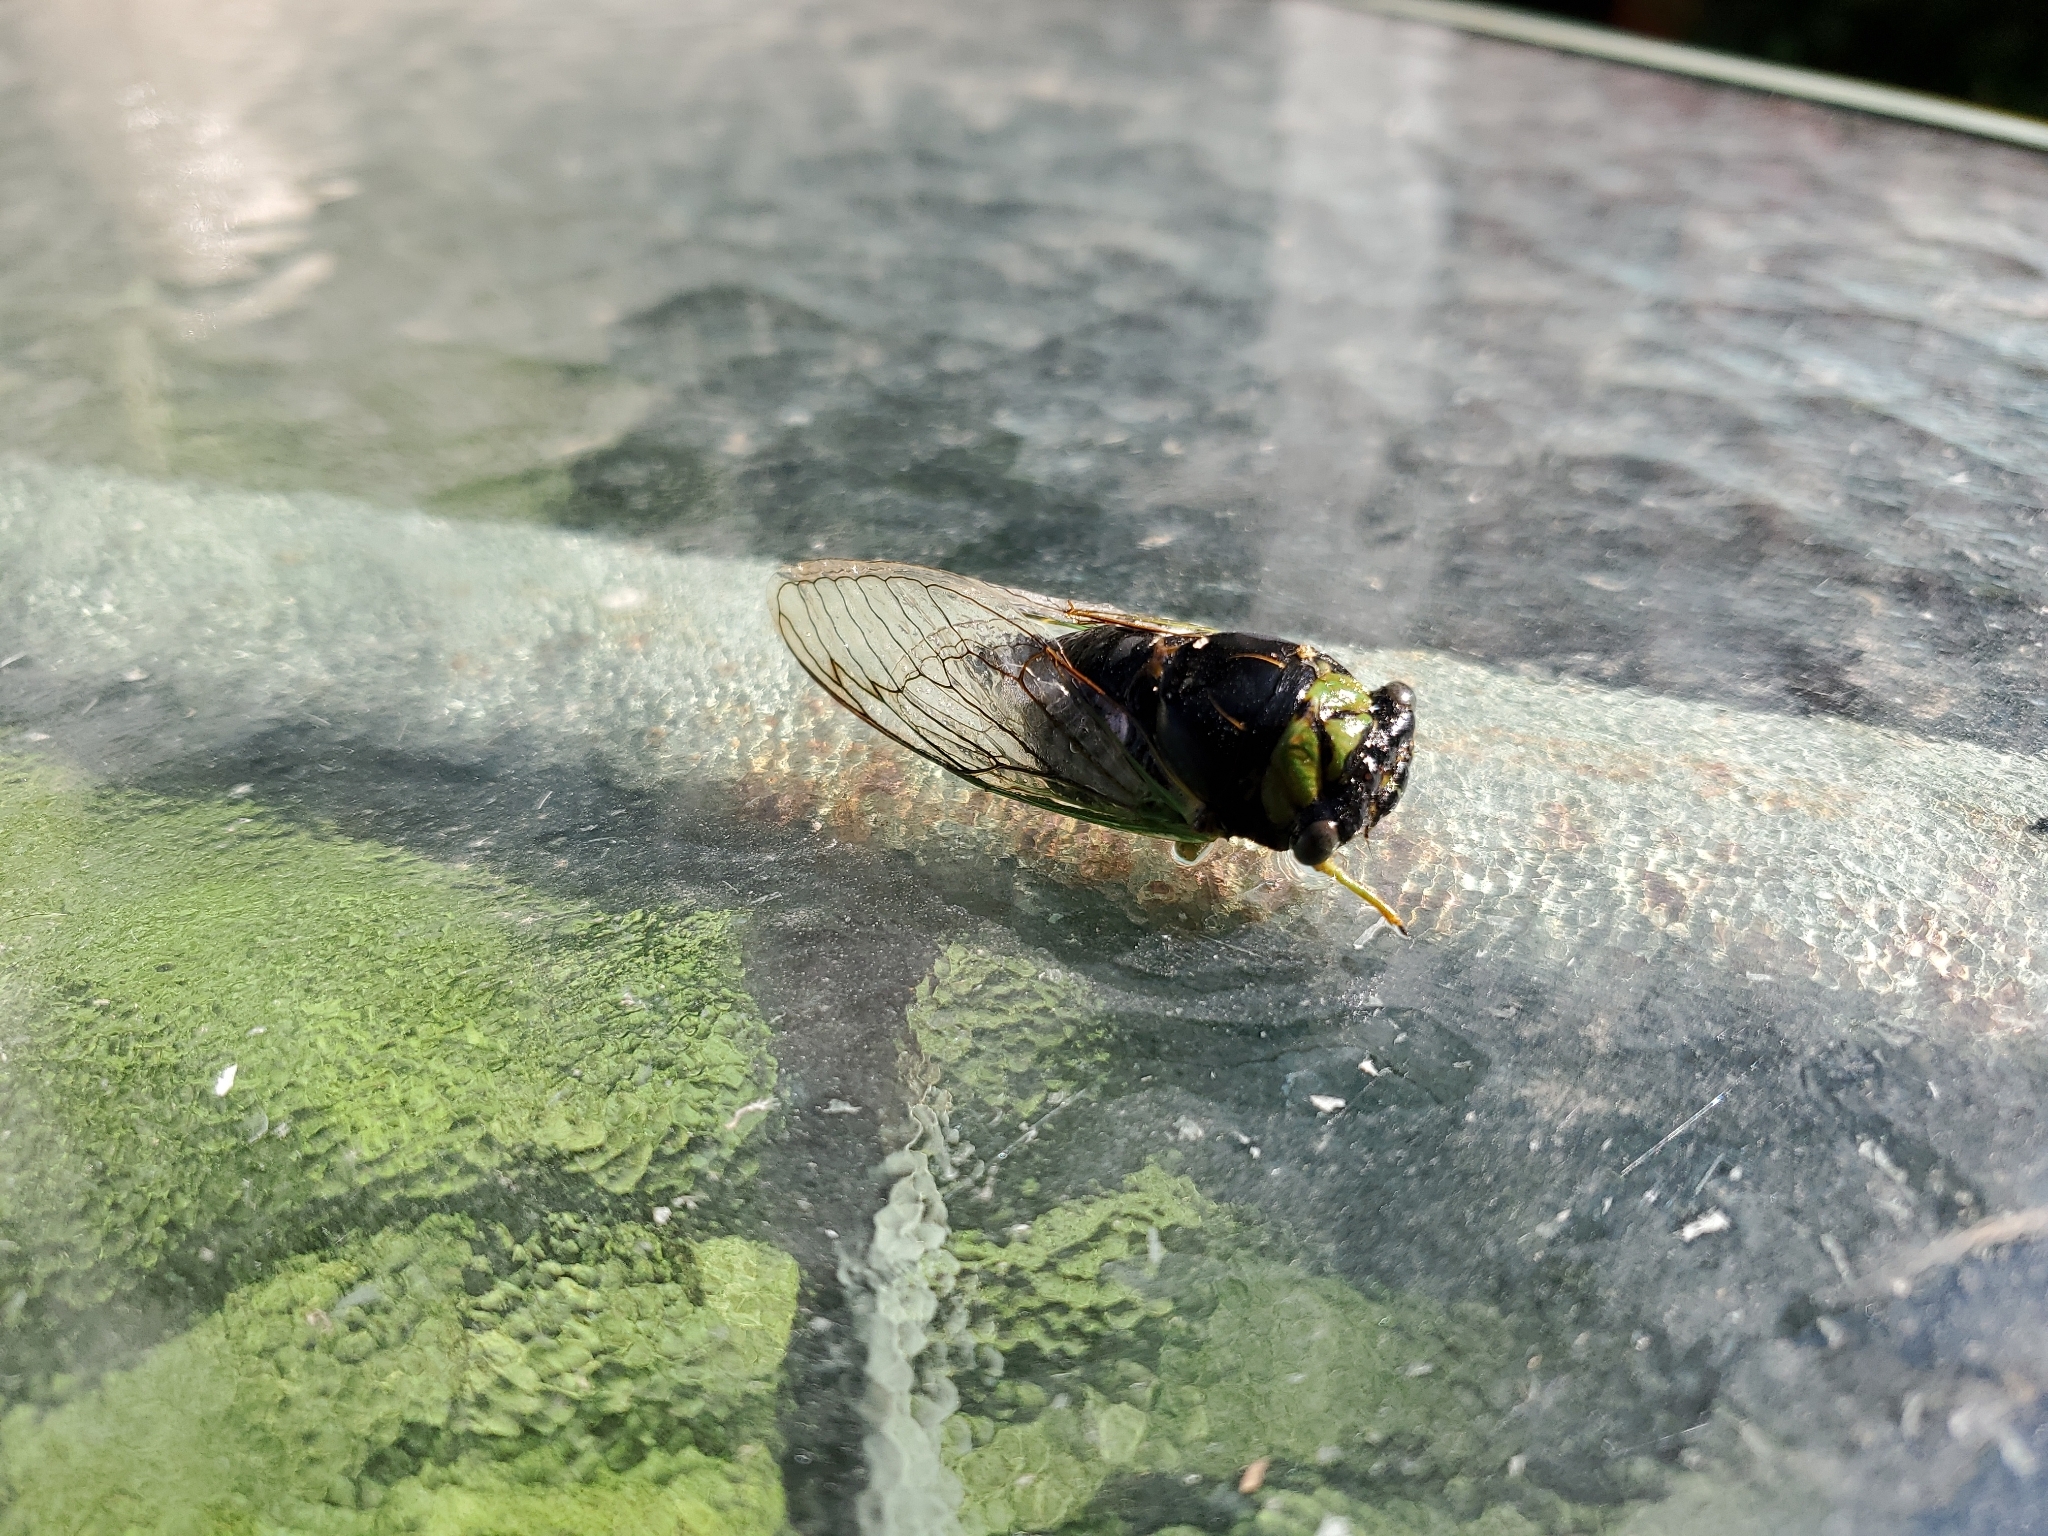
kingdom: Animalia
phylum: Arthropoda
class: Insecta
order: Hemiptera
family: Cicadidae
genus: Neotibicen
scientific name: Neotibicen tibicen
